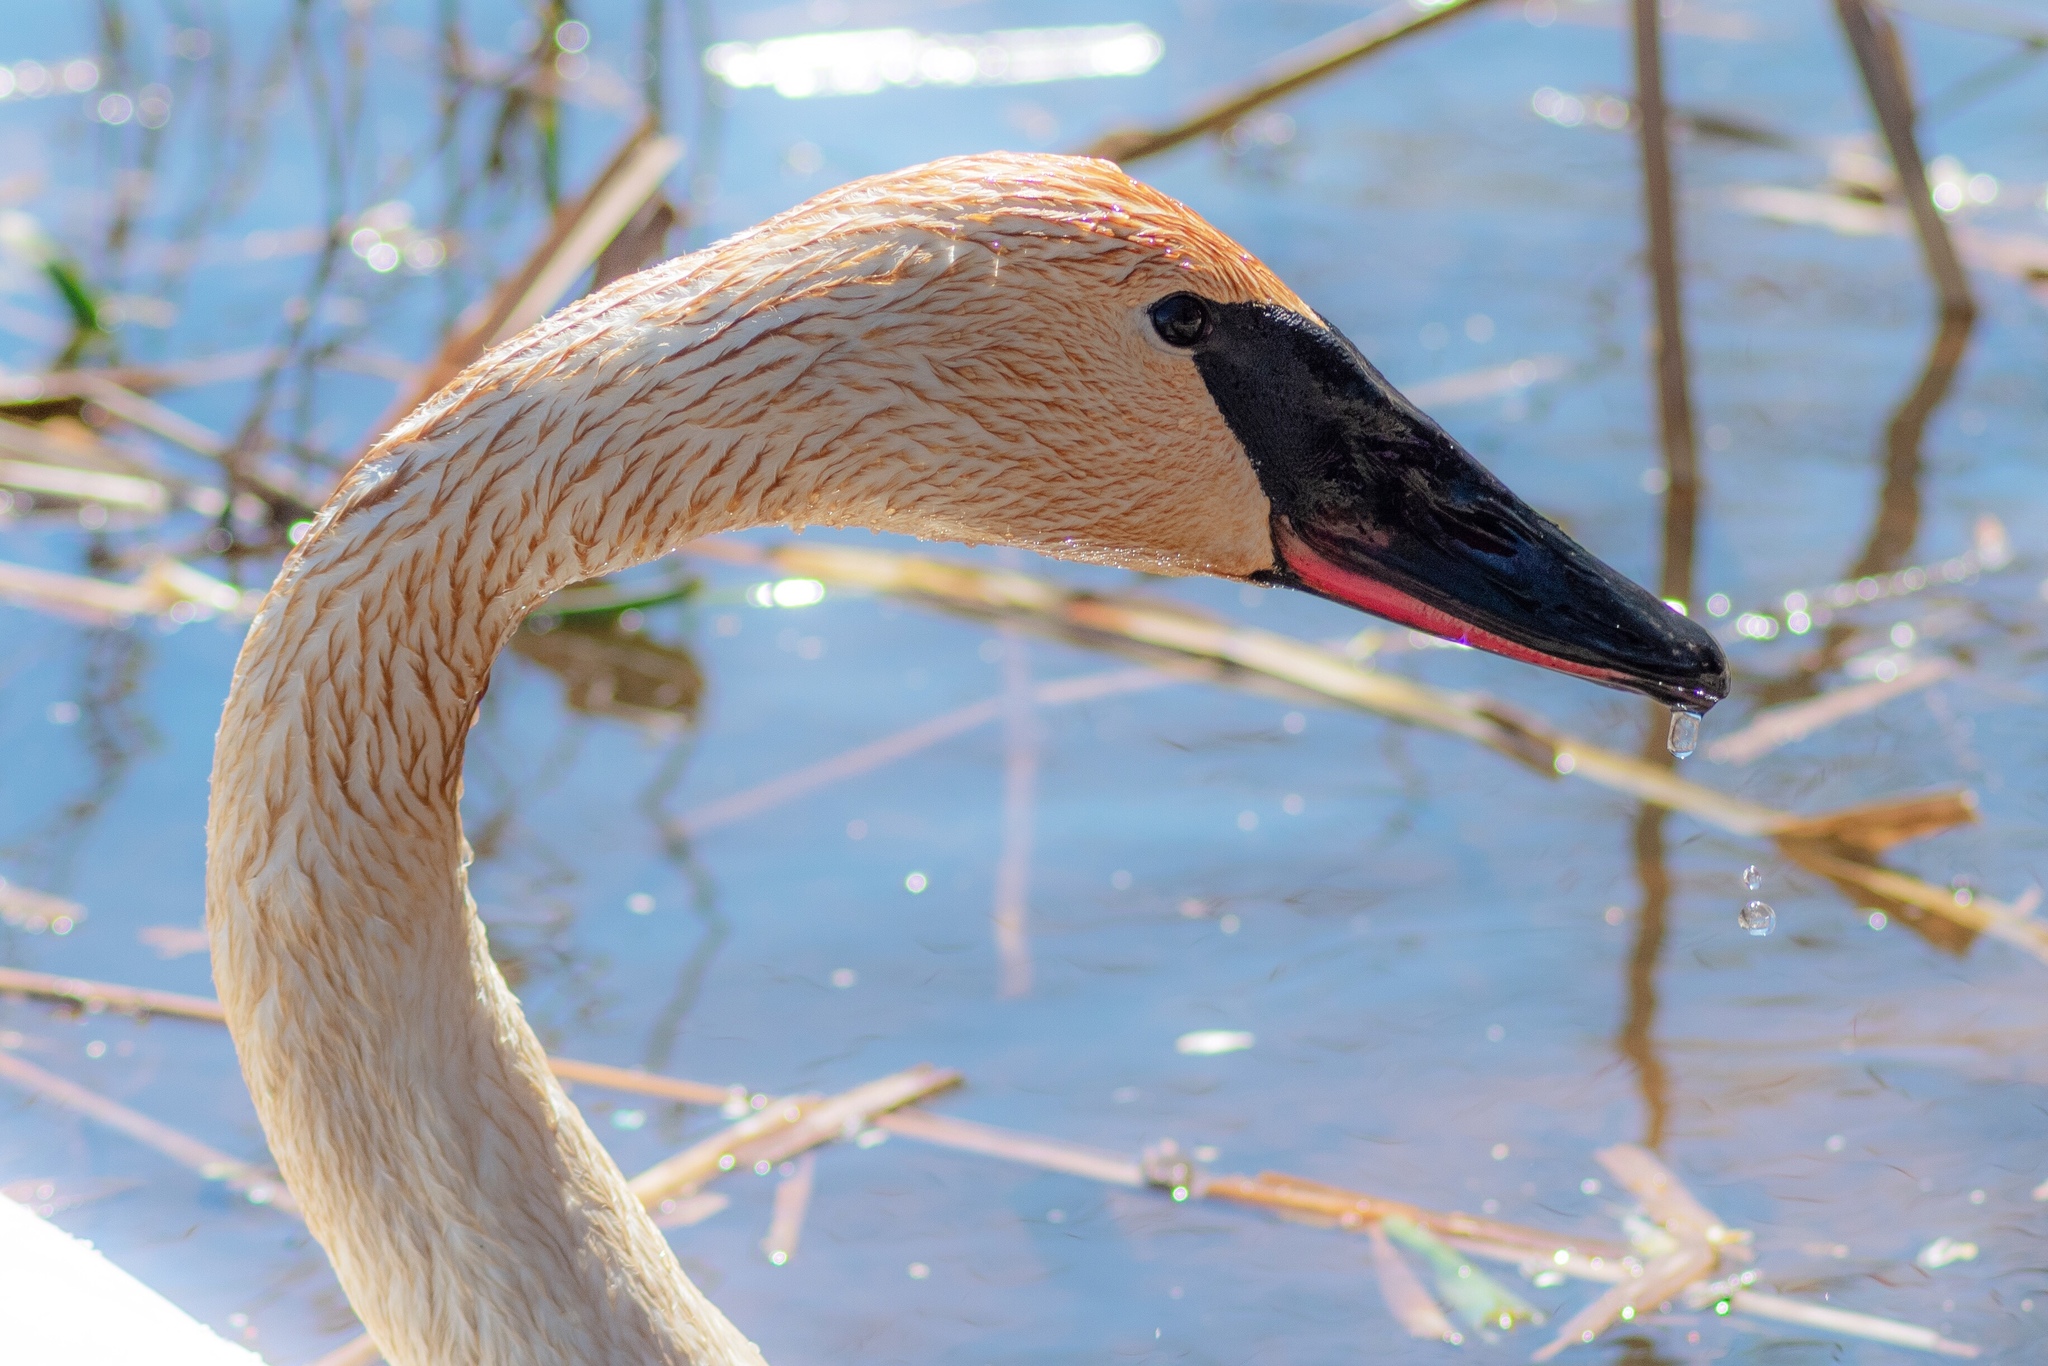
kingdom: Animalia
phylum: Chordata
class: Aves
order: Anseriformes
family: Anatidae
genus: Cygnus
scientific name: Cygnus buccinator
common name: Trumpeter swan
